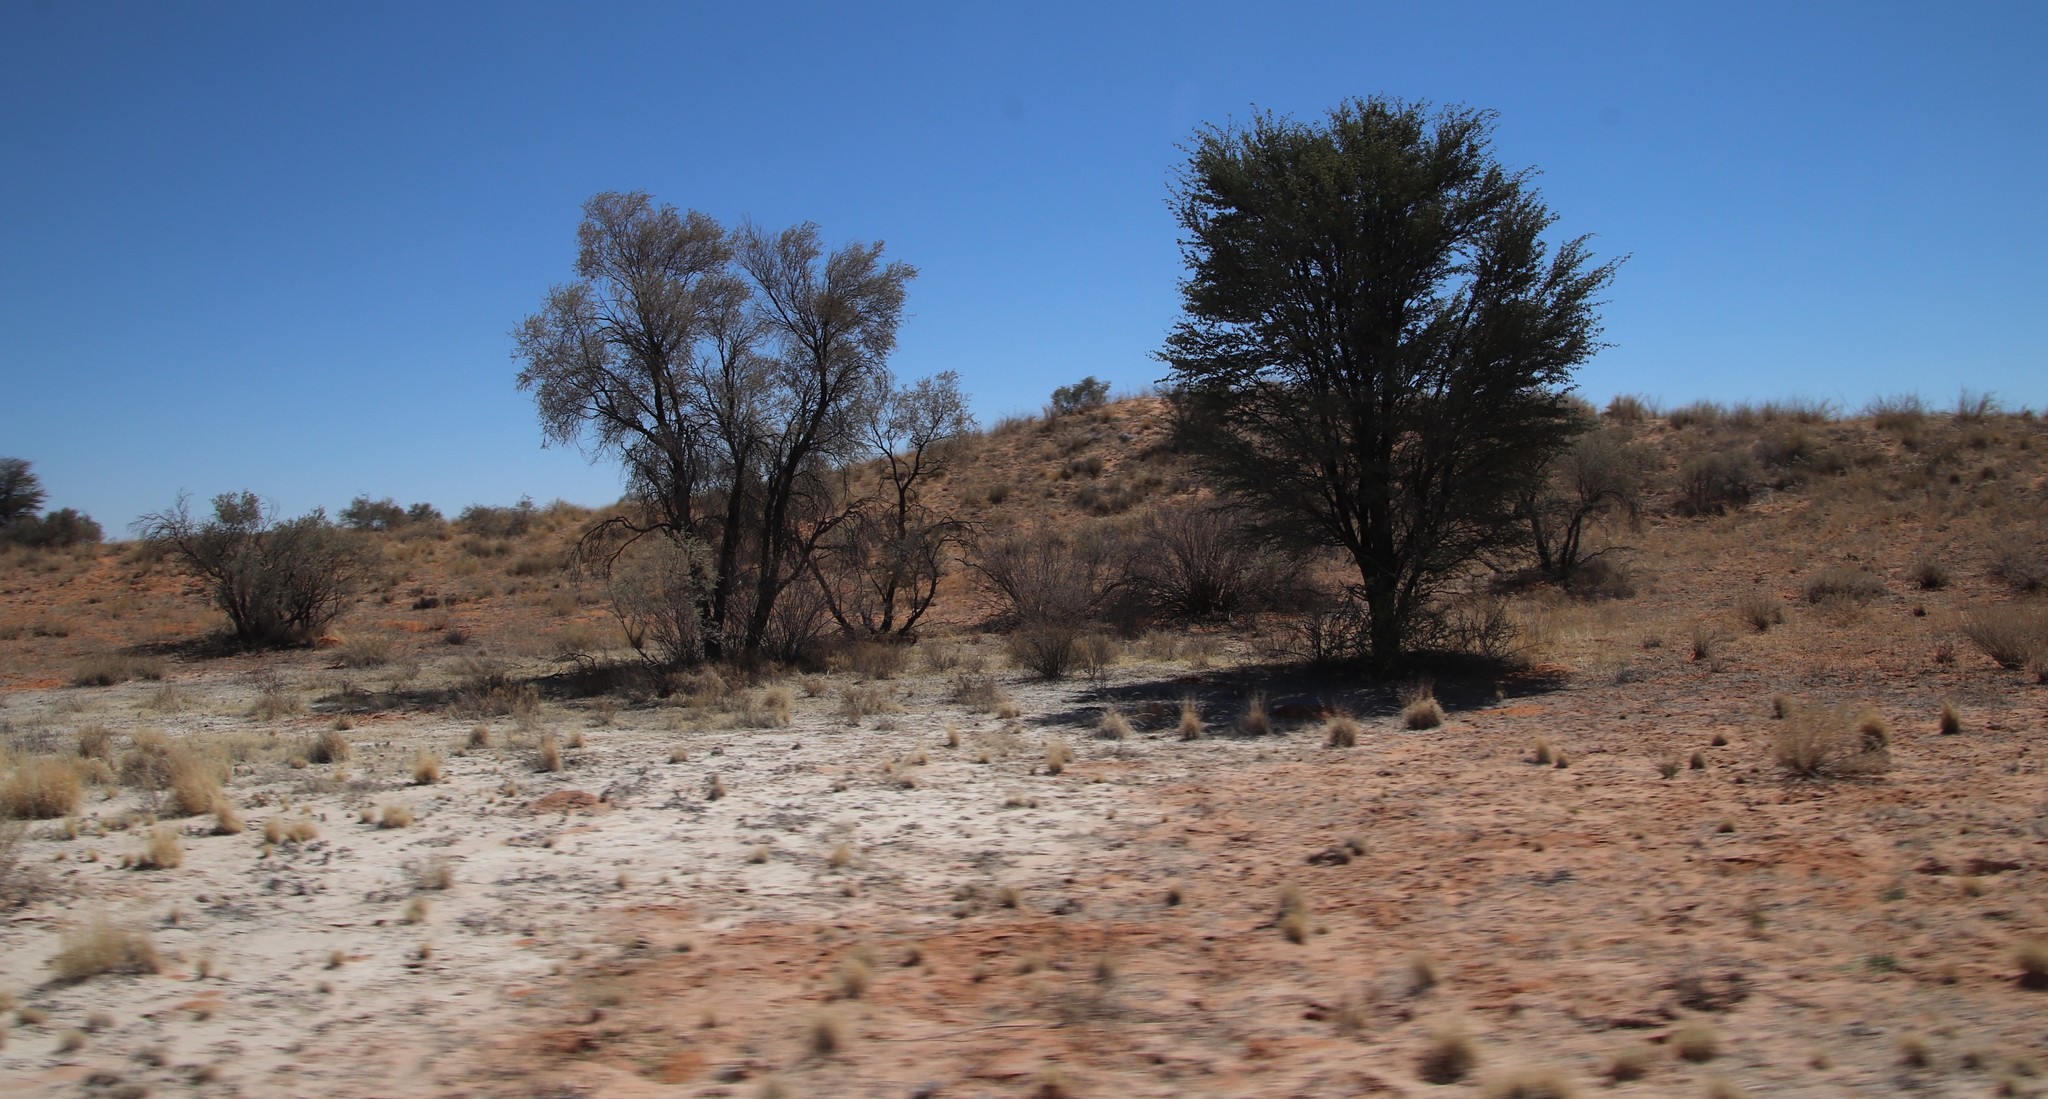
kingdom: Plantae
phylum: Tracheophyta
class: Magnoliopsida
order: Fabales
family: Fabaceae
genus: Vachellia
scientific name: Vachellia haematoxylon
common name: Grey camel thorn
